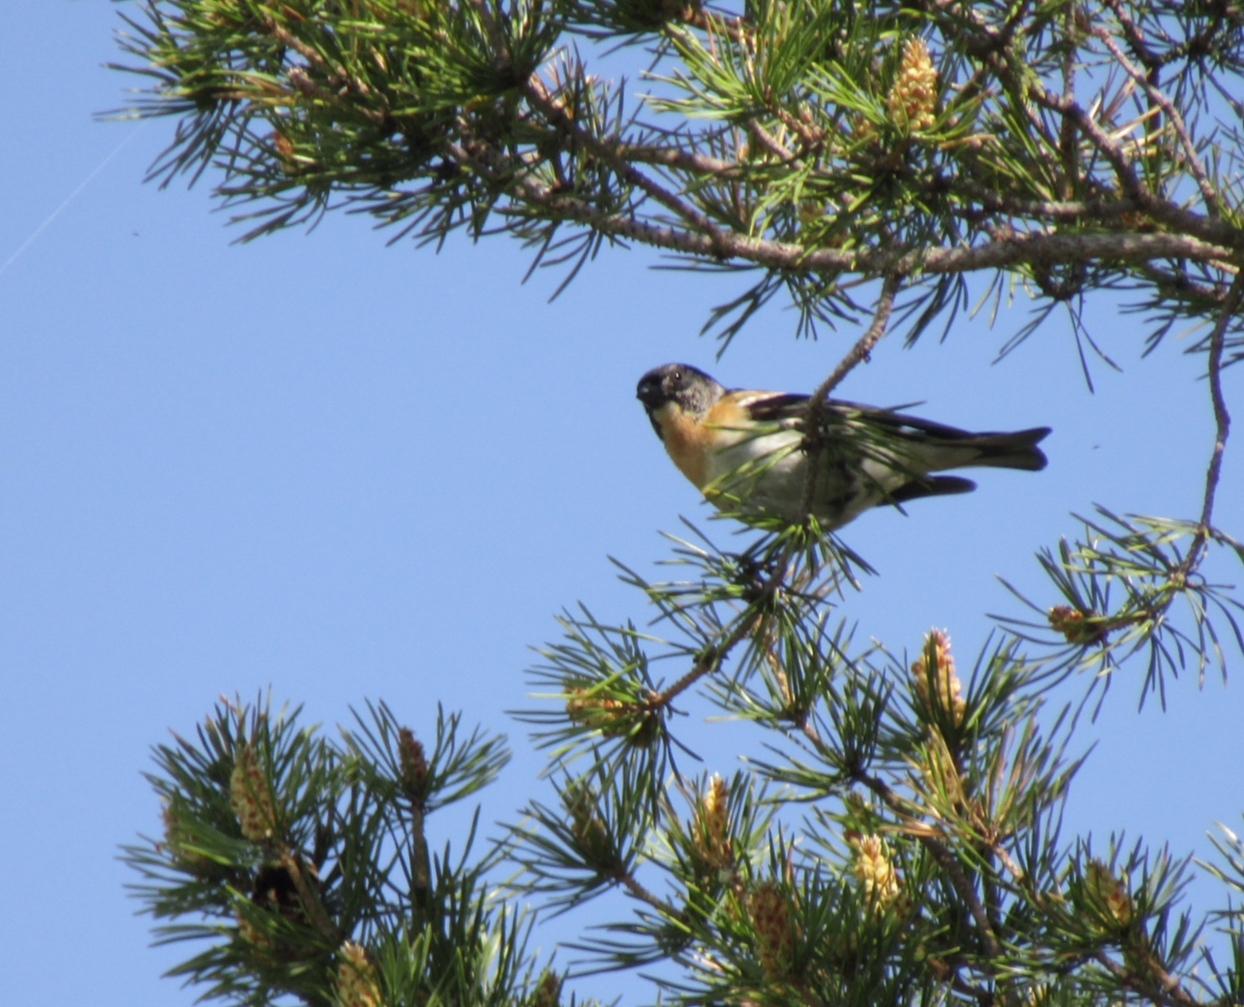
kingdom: Animalia
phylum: Chordata
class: Aves
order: Passeriformes
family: Fringillidae
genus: Fringilla
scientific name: Fringilla montifringilla
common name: Brambling
